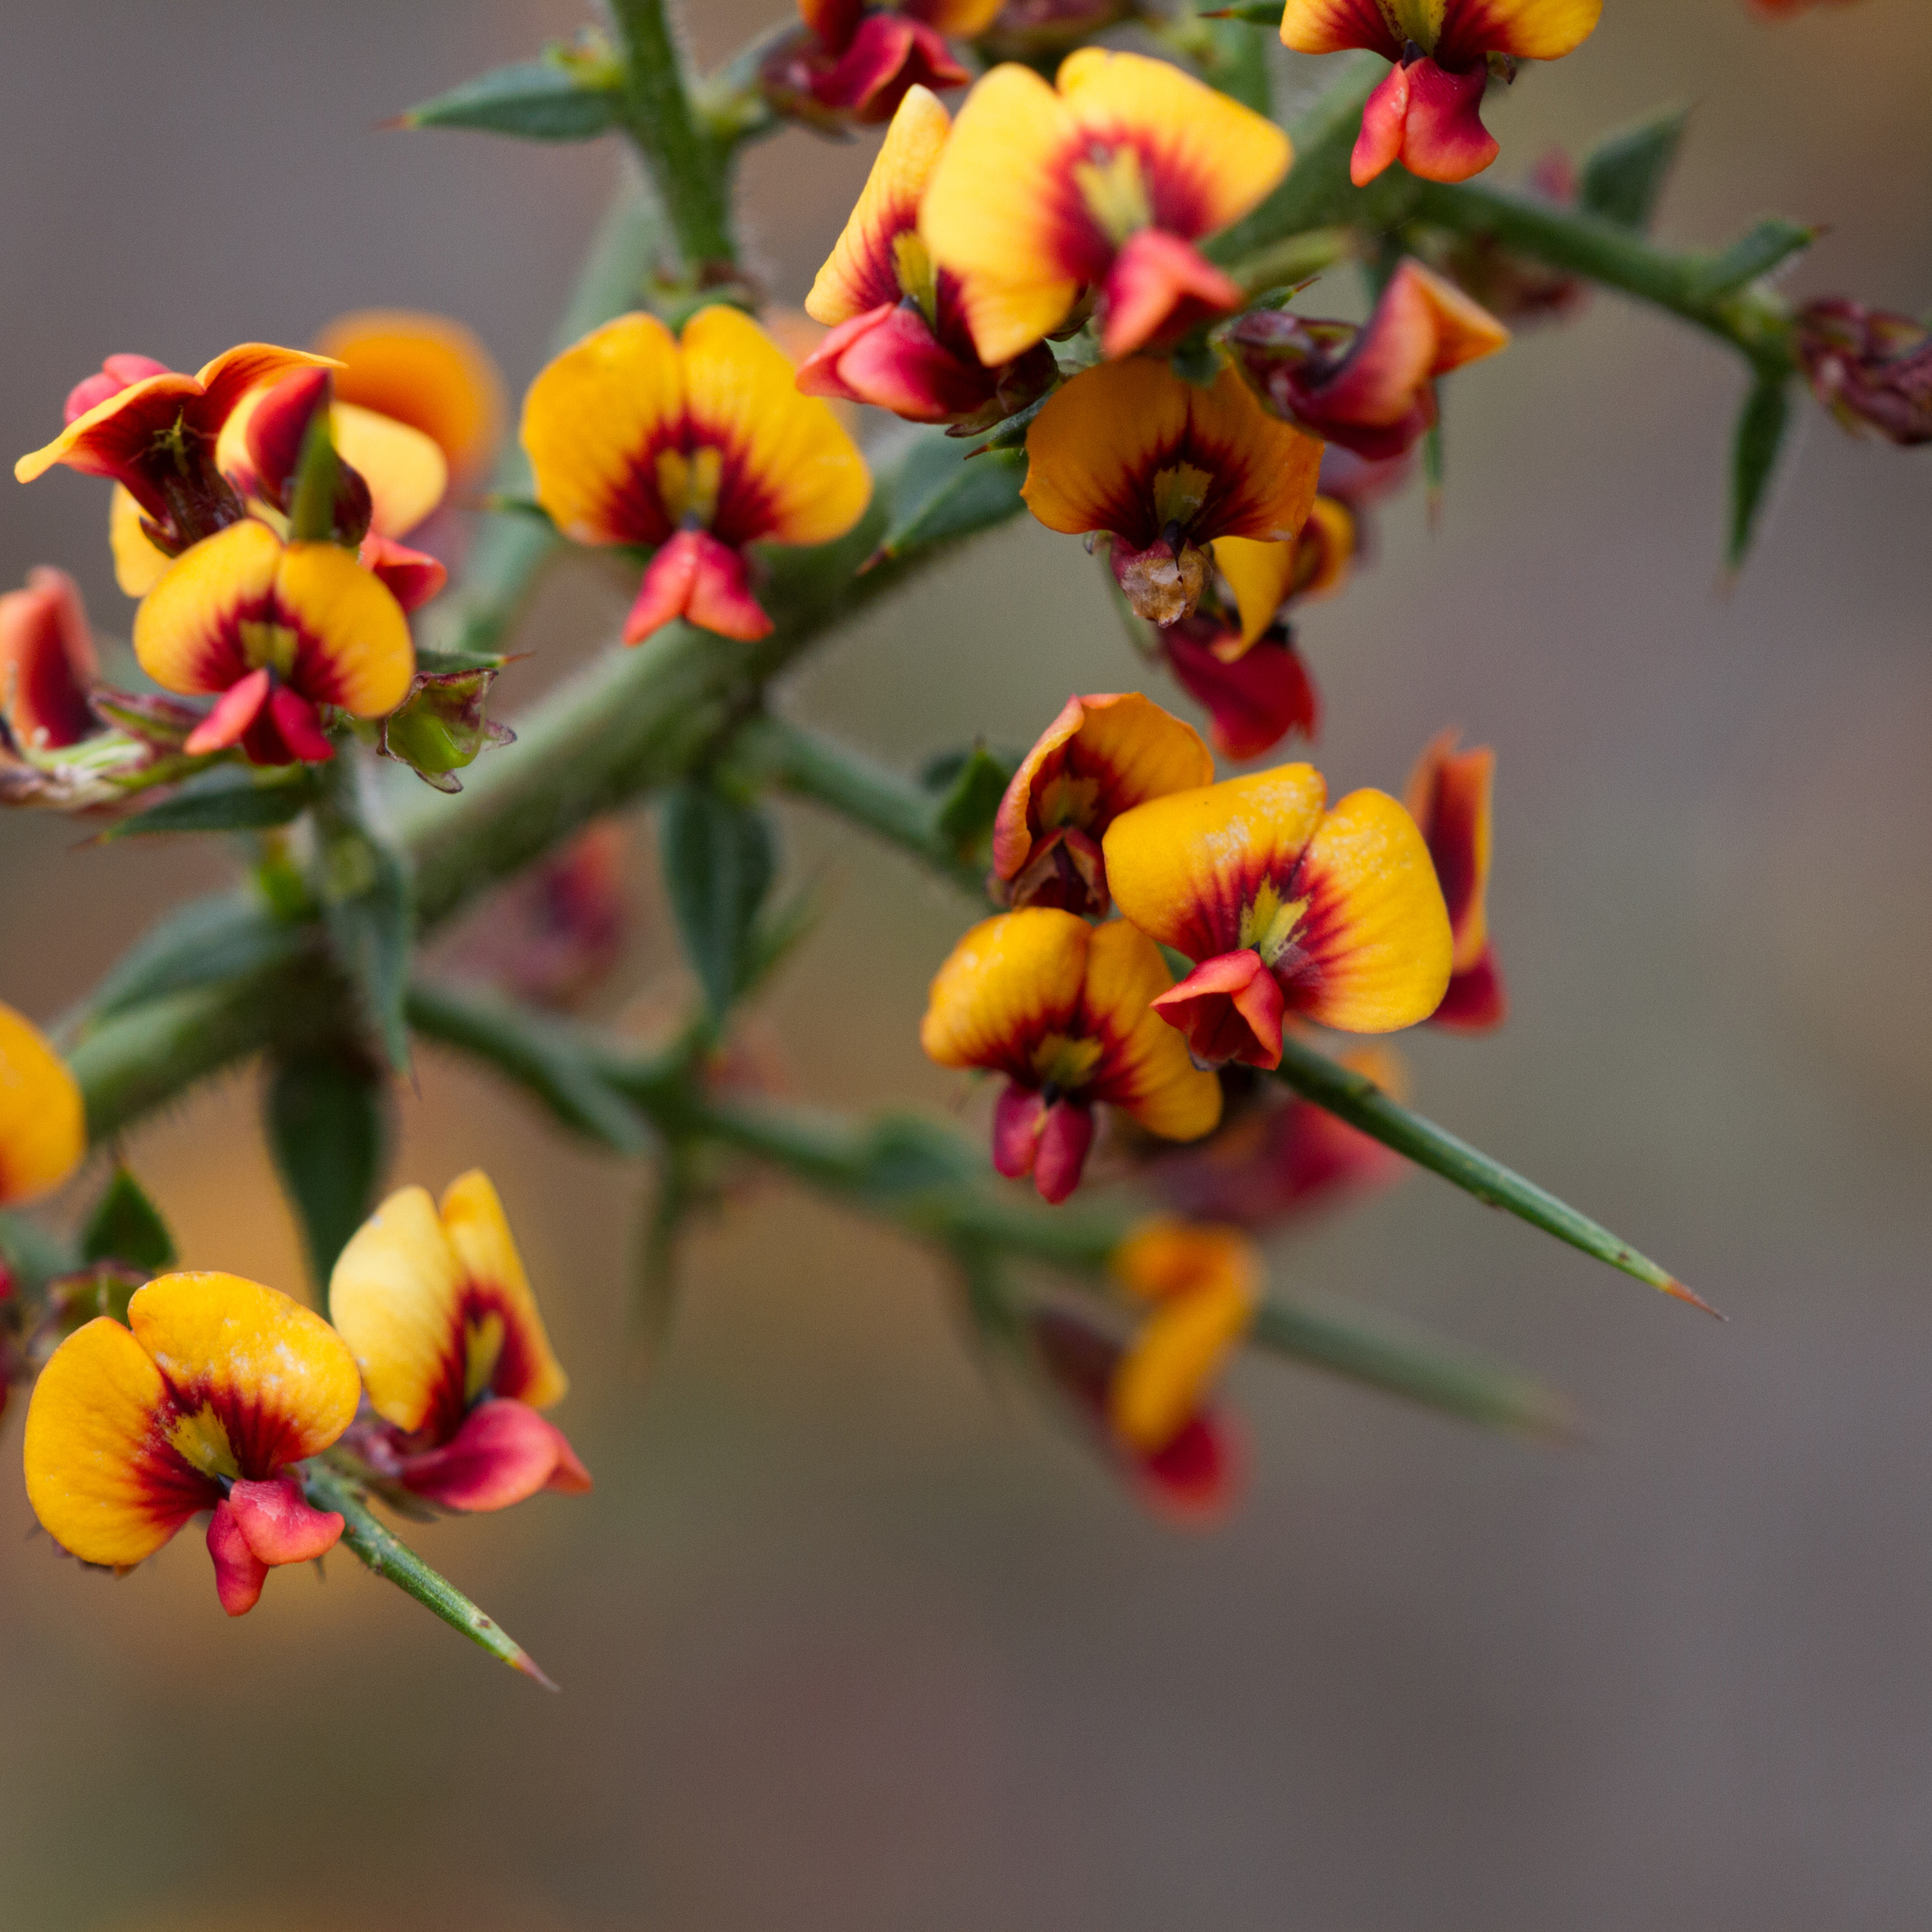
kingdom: Plantae
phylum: Tracheophyta
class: Magnoliopsida
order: Fabales
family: Fabaceae
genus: Daviesia
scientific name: Daviesia ulicifolia
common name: Gorse bitter-pea
